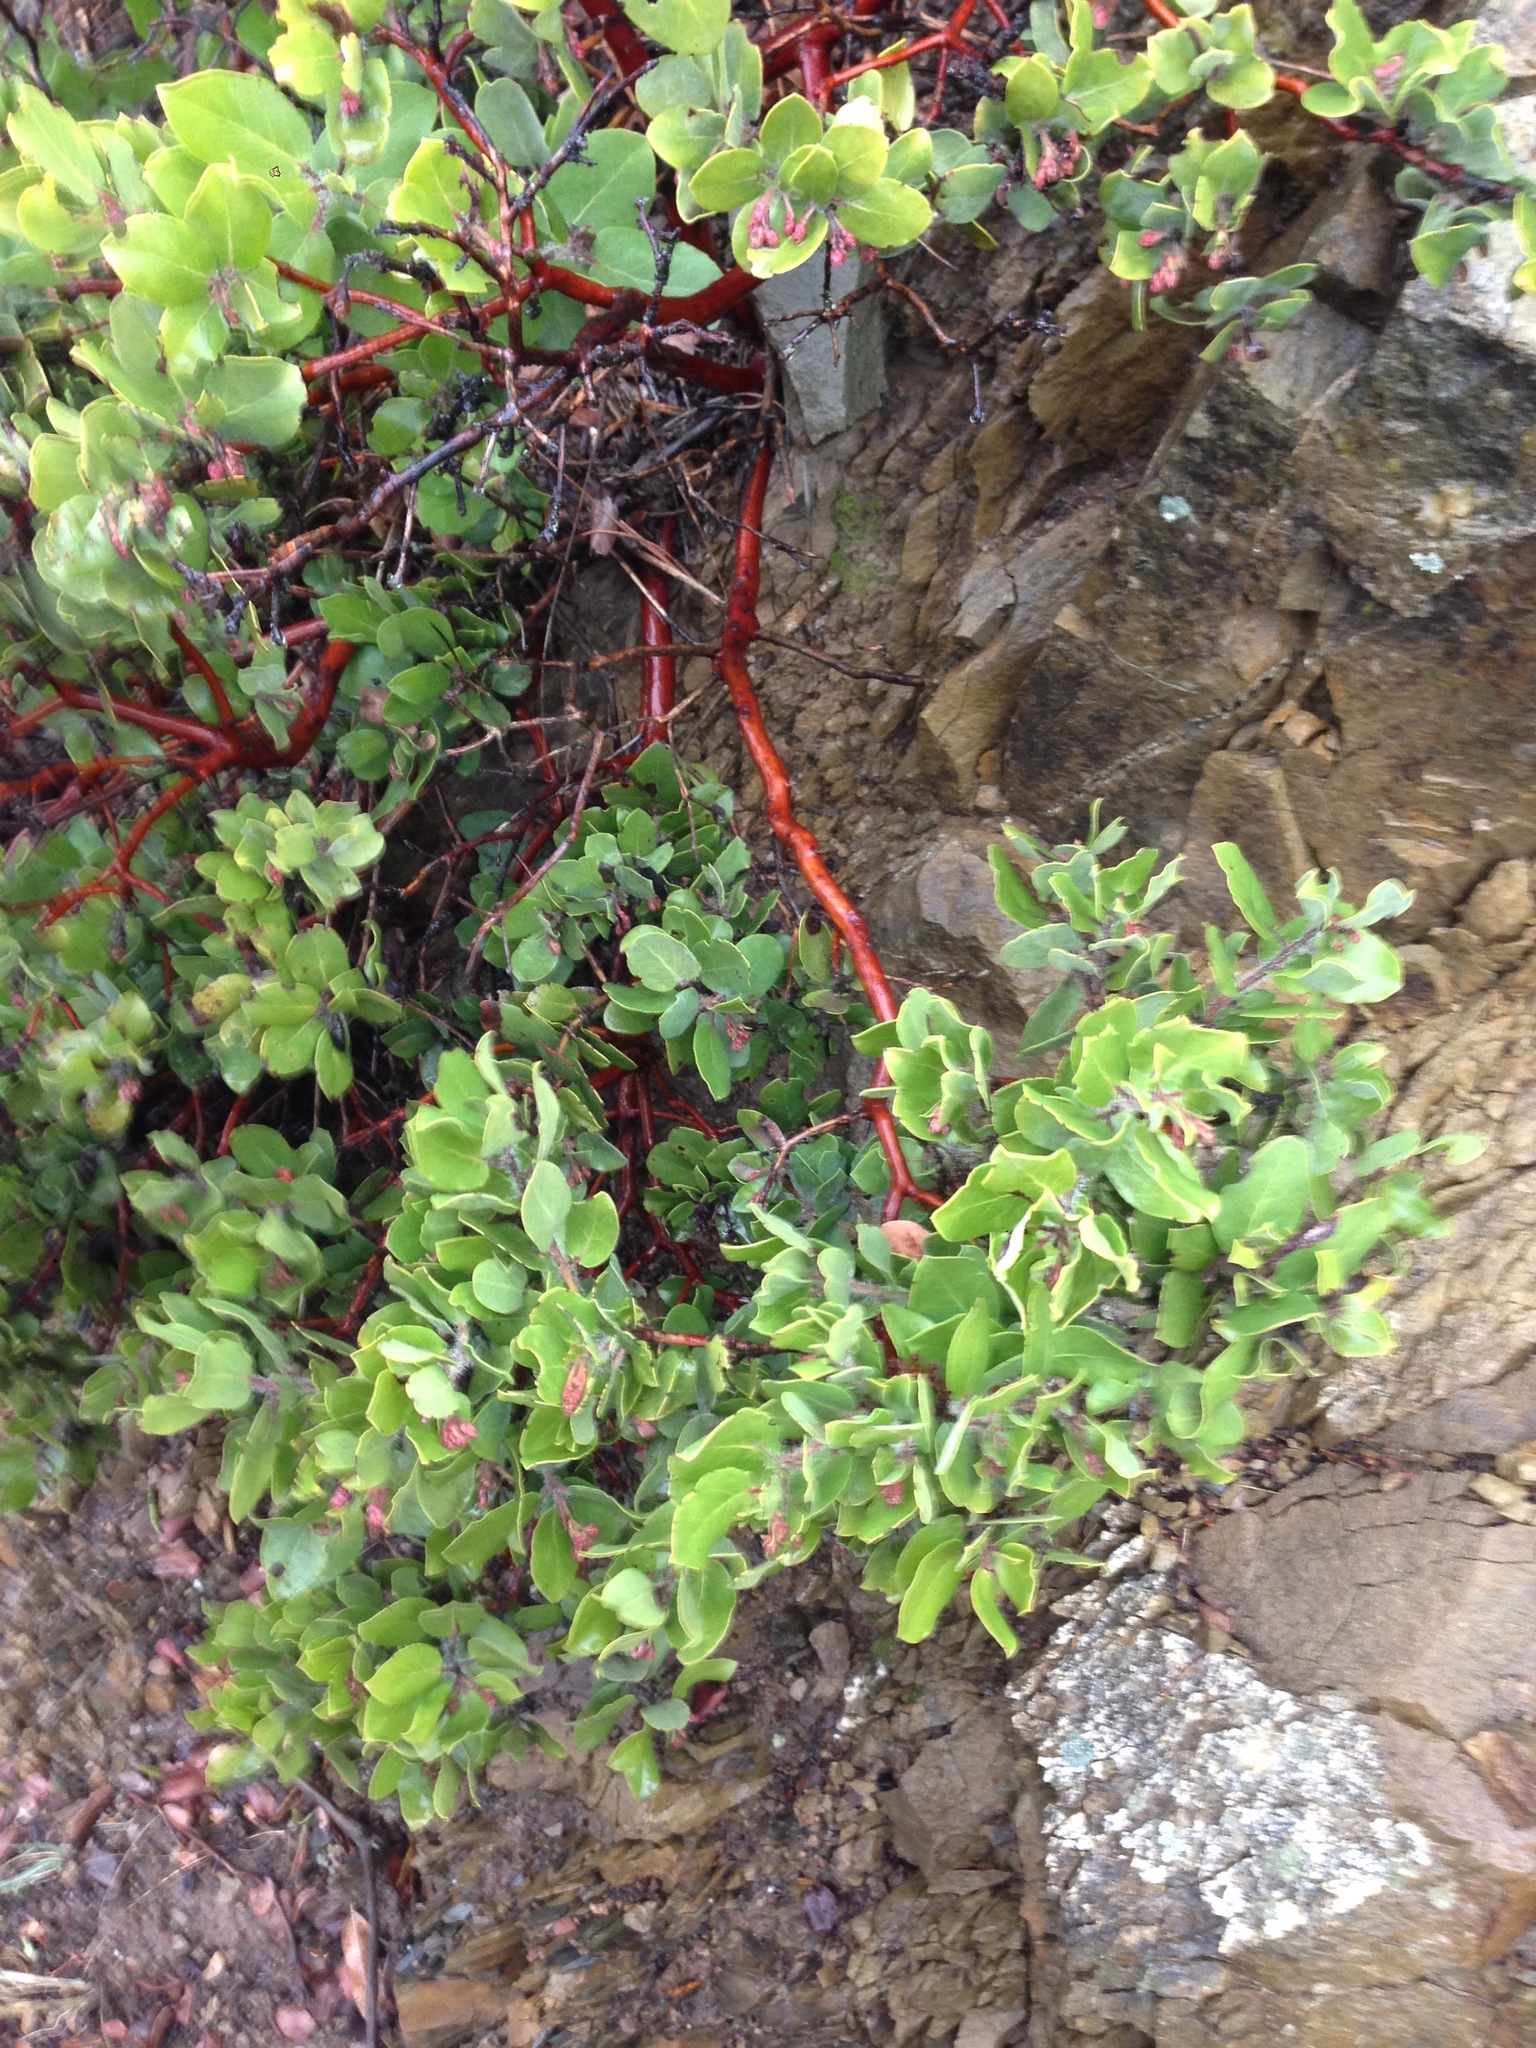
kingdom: Plantae
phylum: Tracheophyta
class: Magnoliopsida
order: Ericales
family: Ericaceae
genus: Arctostaphylos
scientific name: Arctostaphylos crustacea
